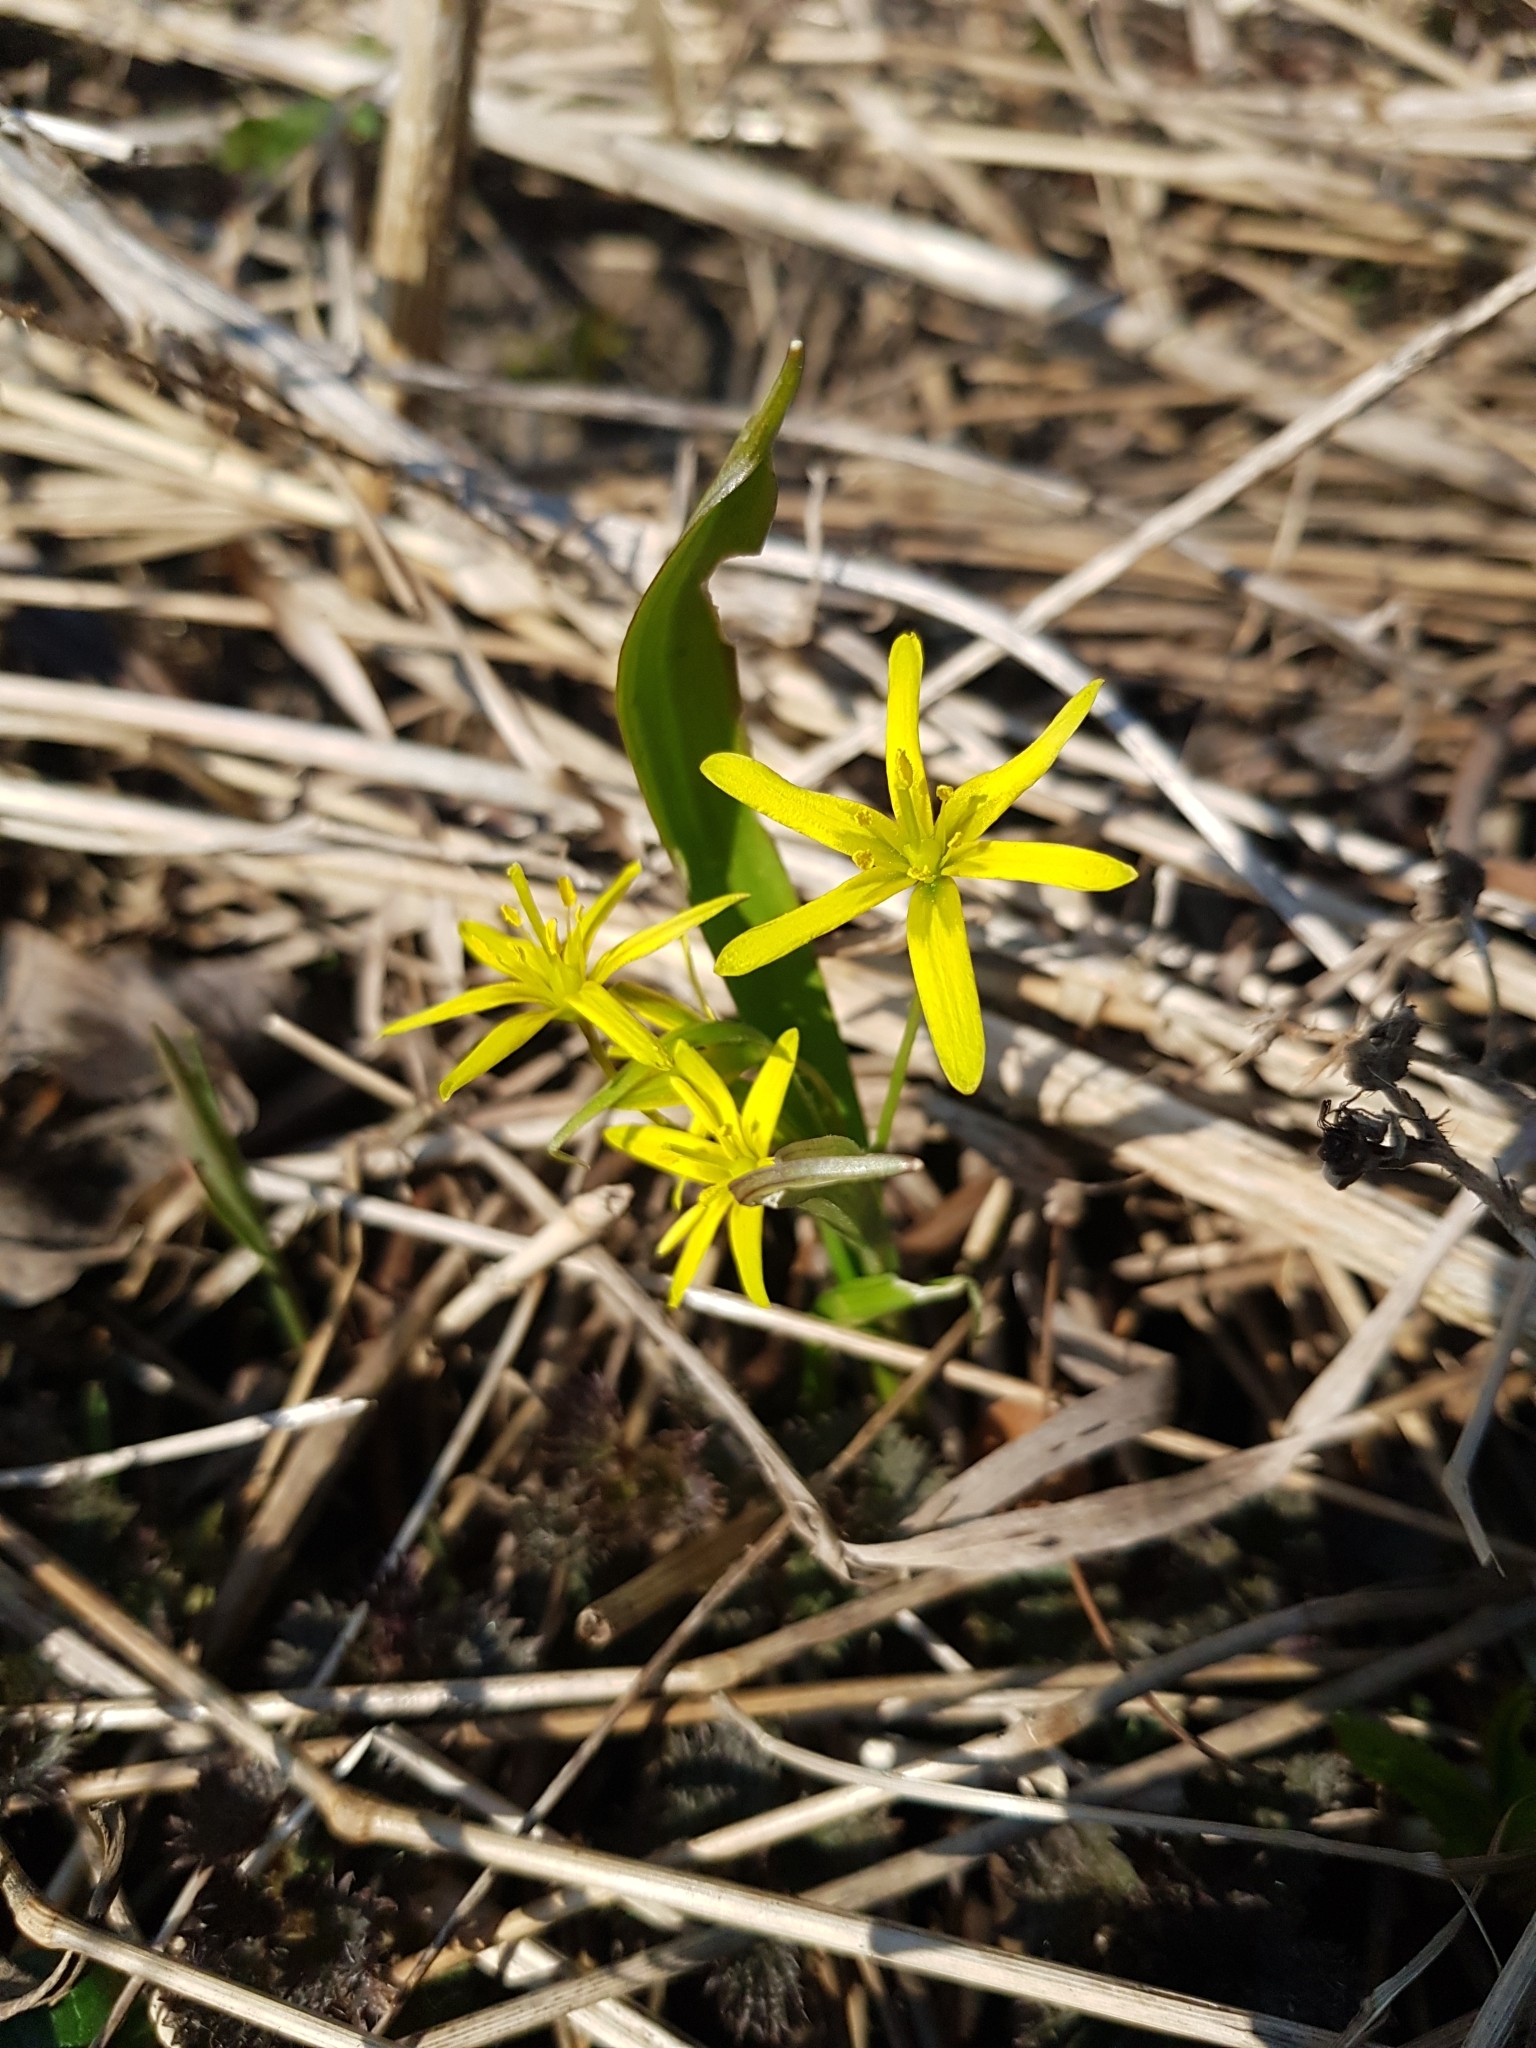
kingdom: Plantae
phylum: Tracheophyta
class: Liliopsida
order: Liliales
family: Liliaceae
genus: Gagea
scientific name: Gagea lutea
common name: Yellow star-of-bethlehem
